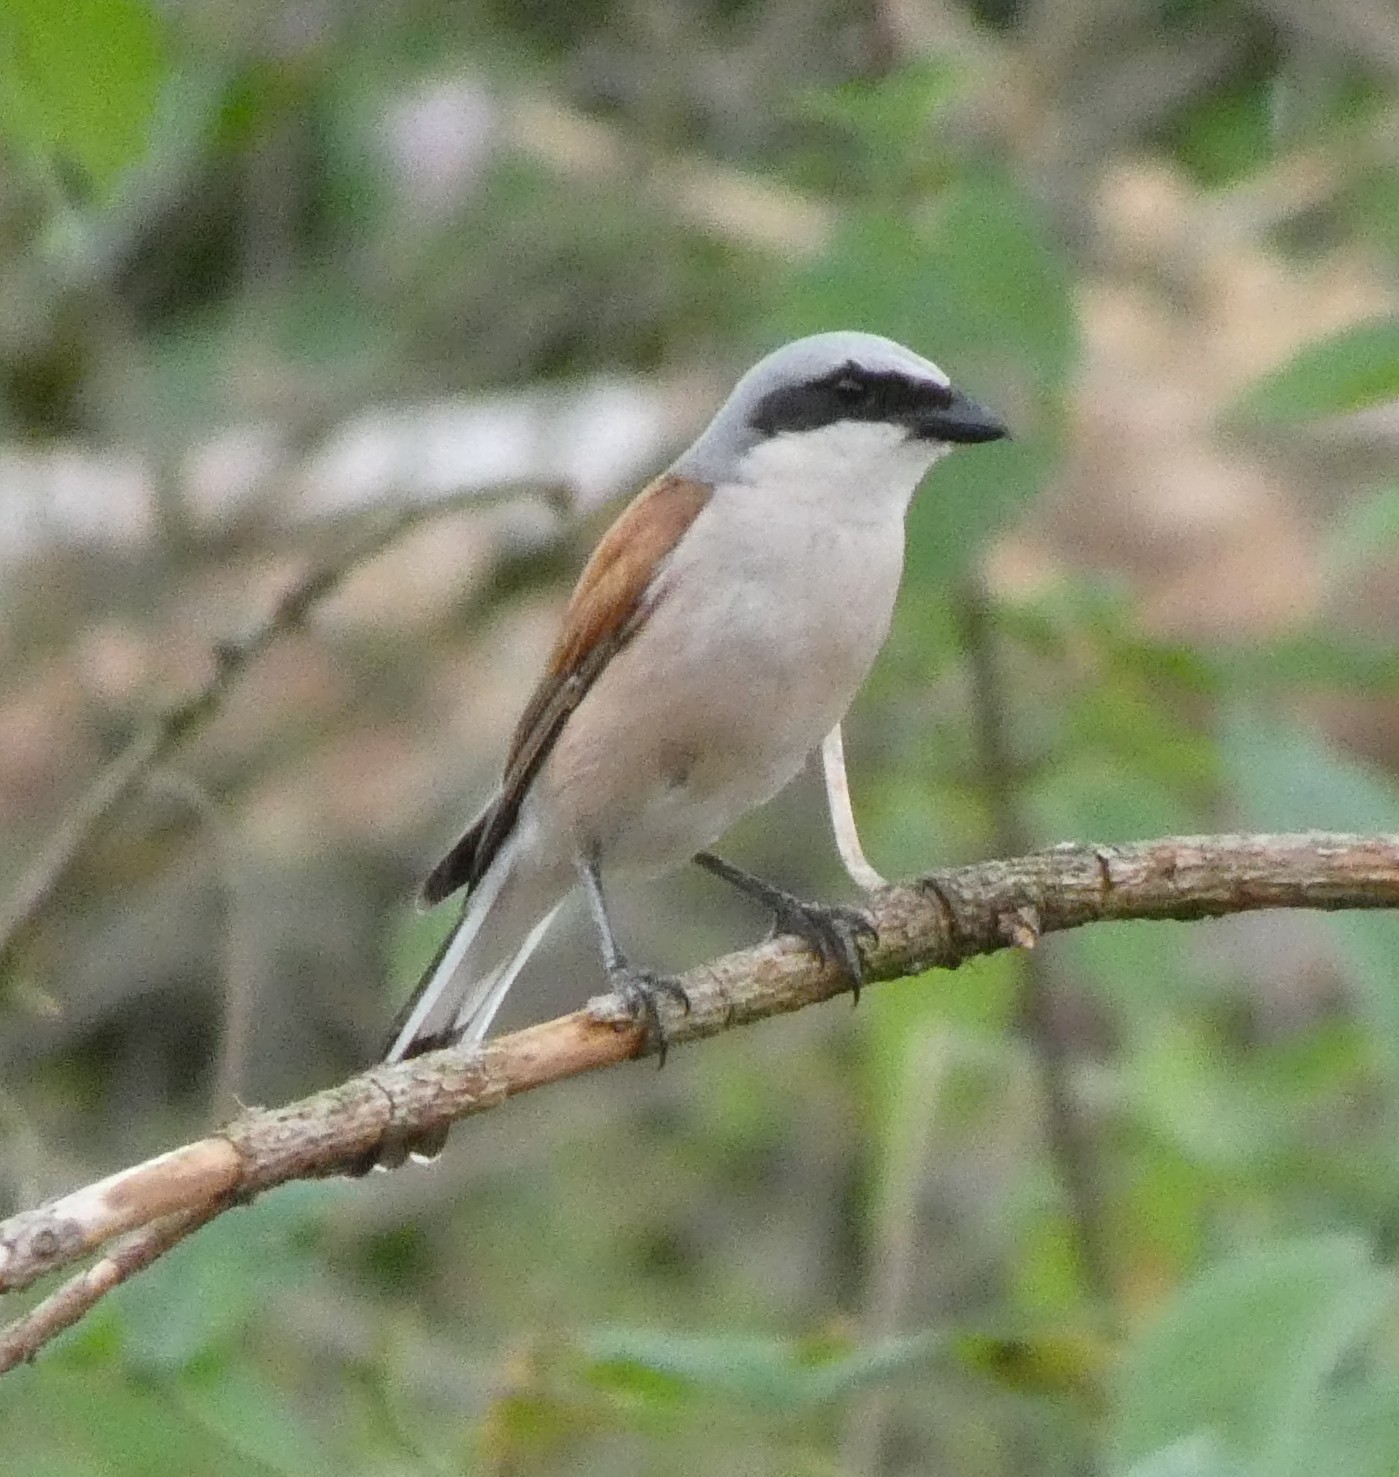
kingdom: Animalia
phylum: Chordata
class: Aves
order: Passeriformes
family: Laniidae
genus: Lanius
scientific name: Lanius collurio
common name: Red-backed shrike
